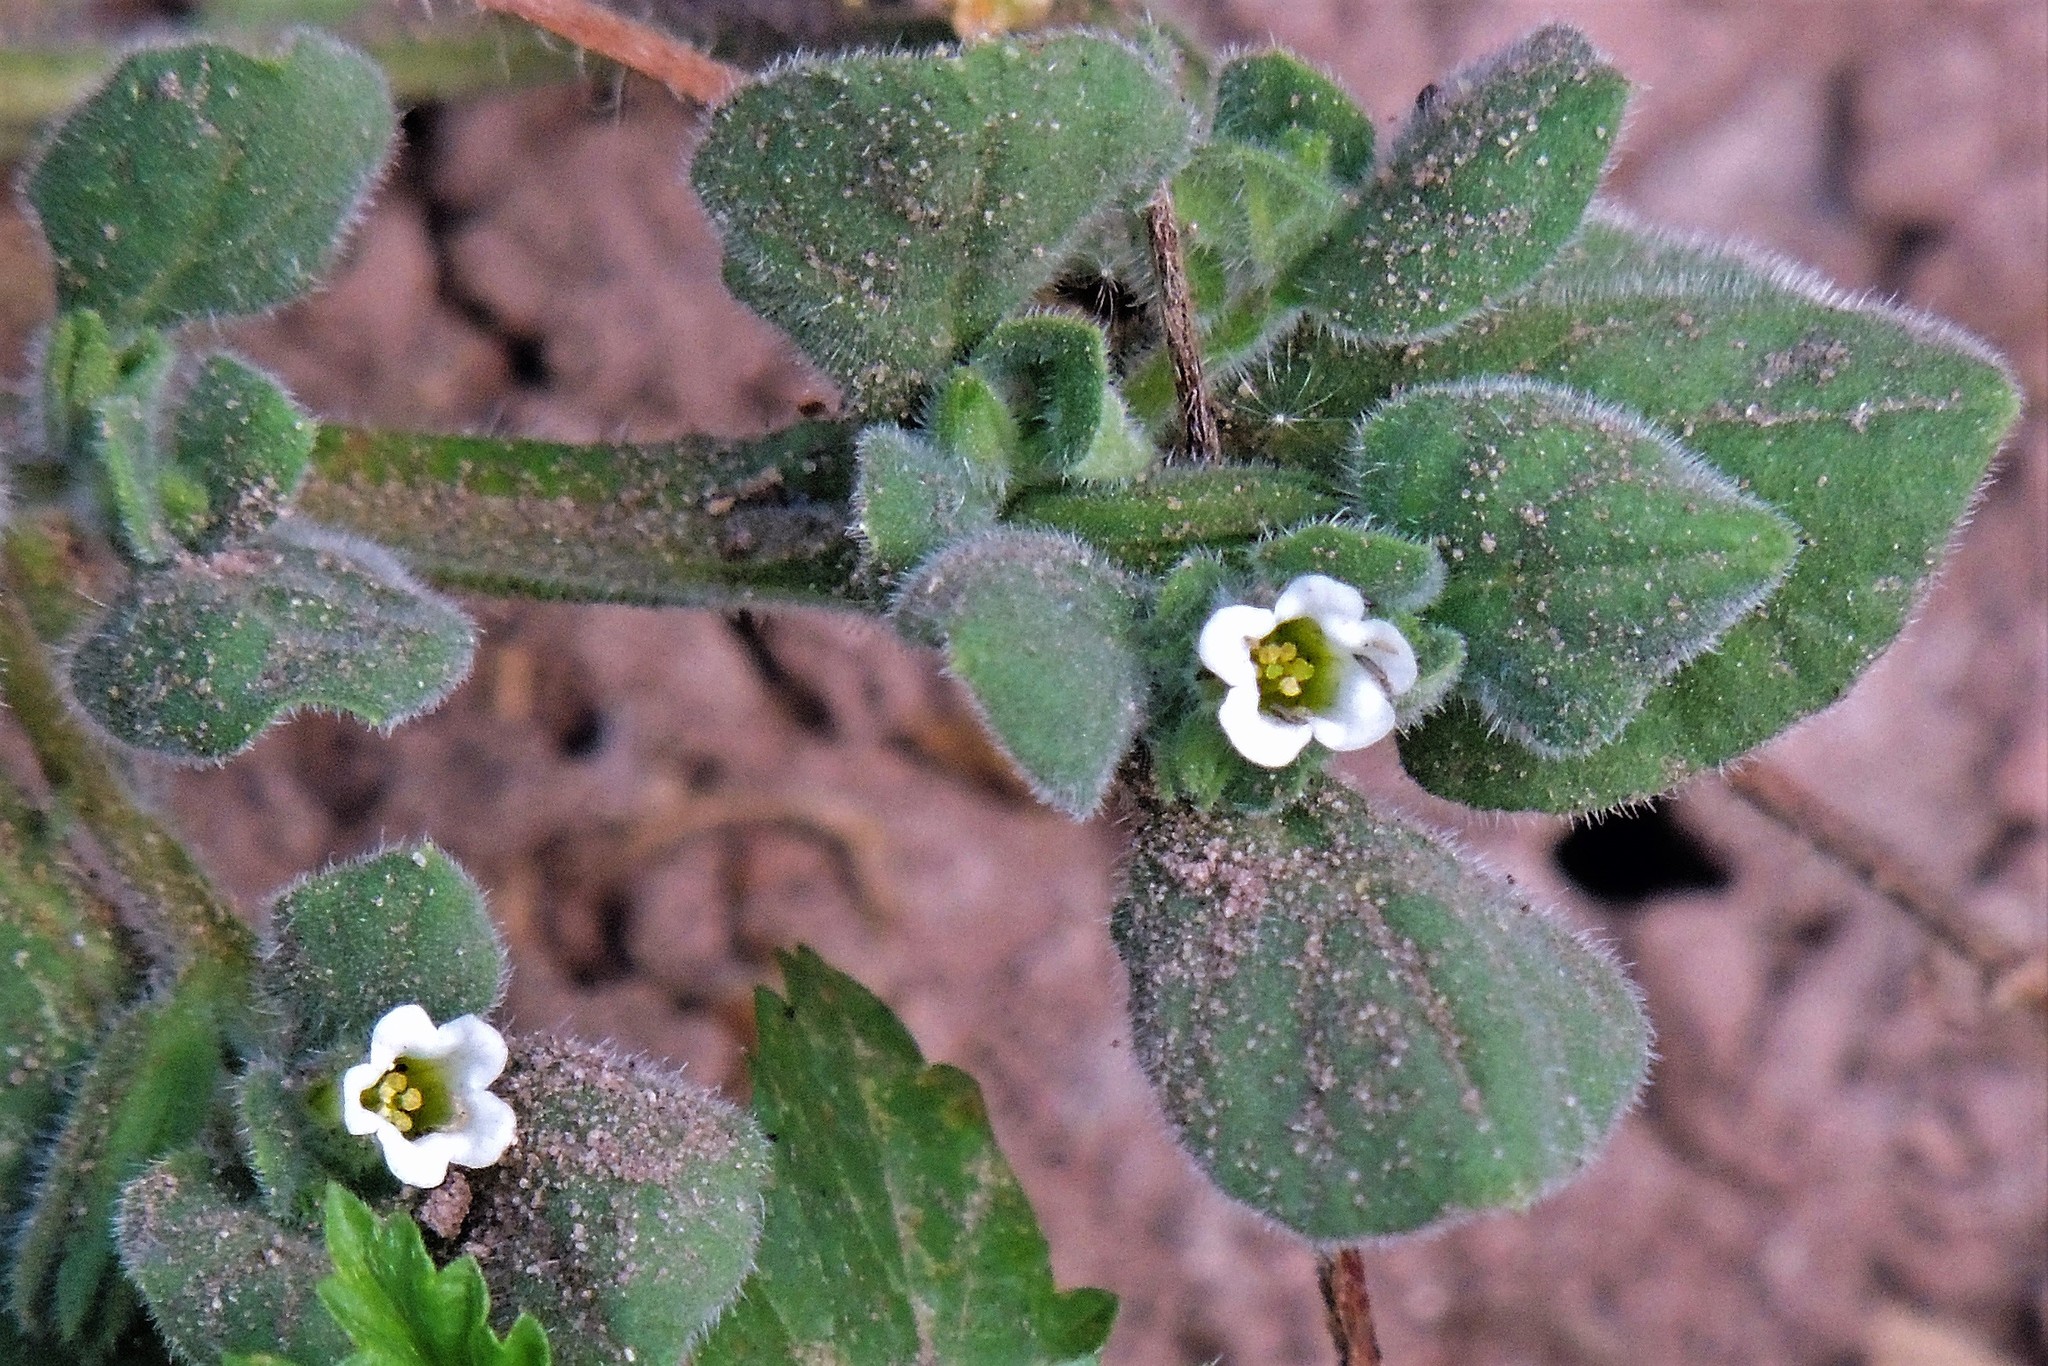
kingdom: Plantae
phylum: Tracheophyta
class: Magnoliopsida
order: Boraginales
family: Namaceae
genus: Nama
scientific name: Nama jamaicensis
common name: Jamaicanweed
